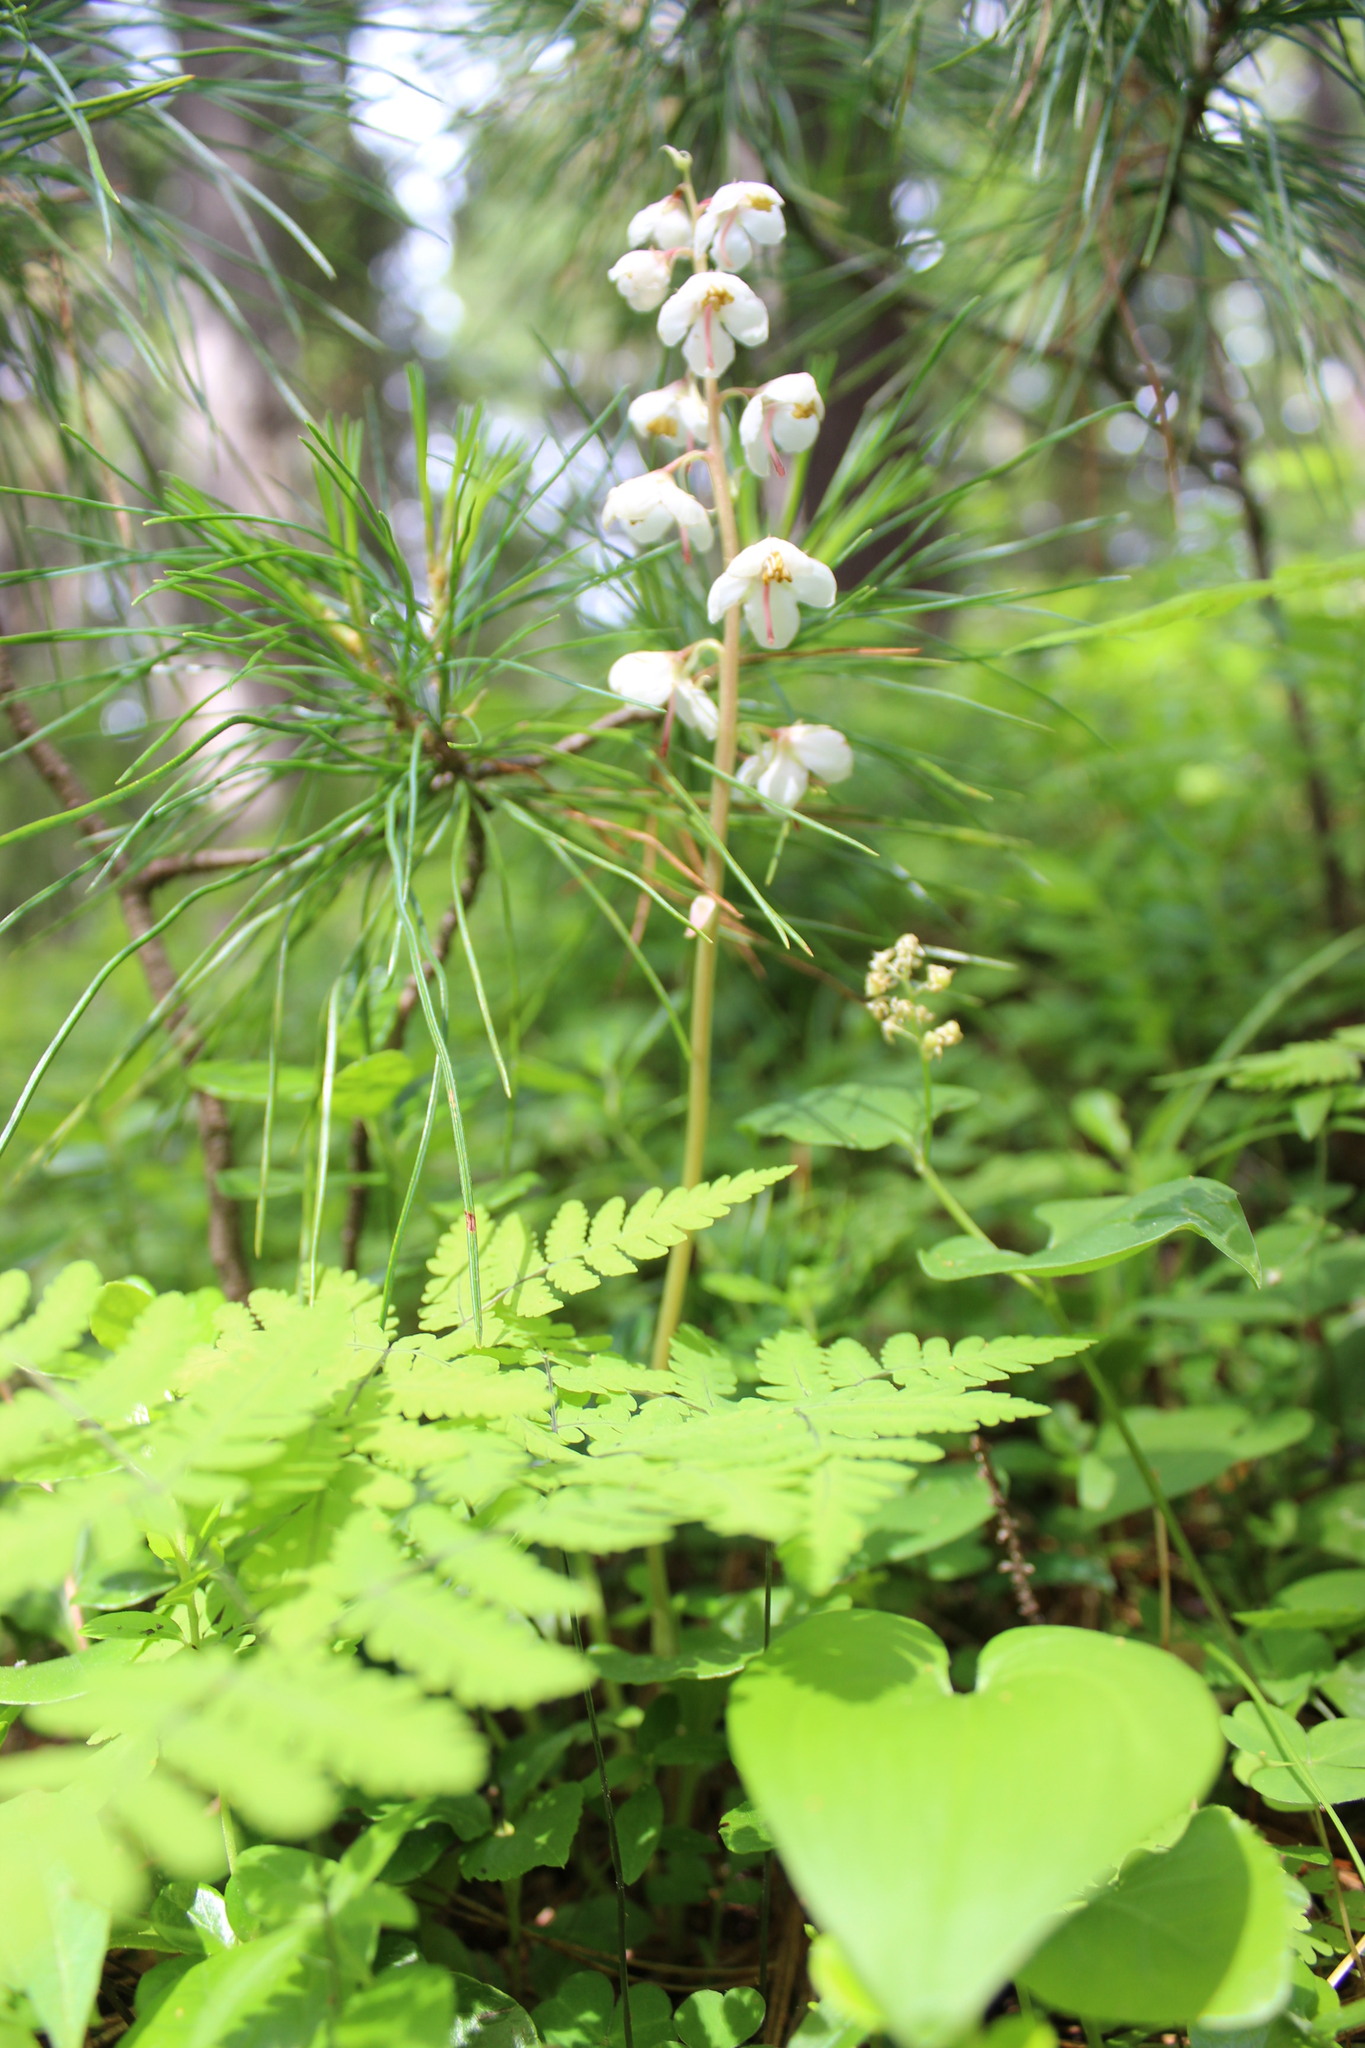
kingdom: Plantae
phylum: Tracheophyta
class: Magnoliopsida
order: Ericales
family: Ericaceae
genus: Pyrola
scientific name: Pyrola rotundifolia
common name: Round-leaved wintergreen
